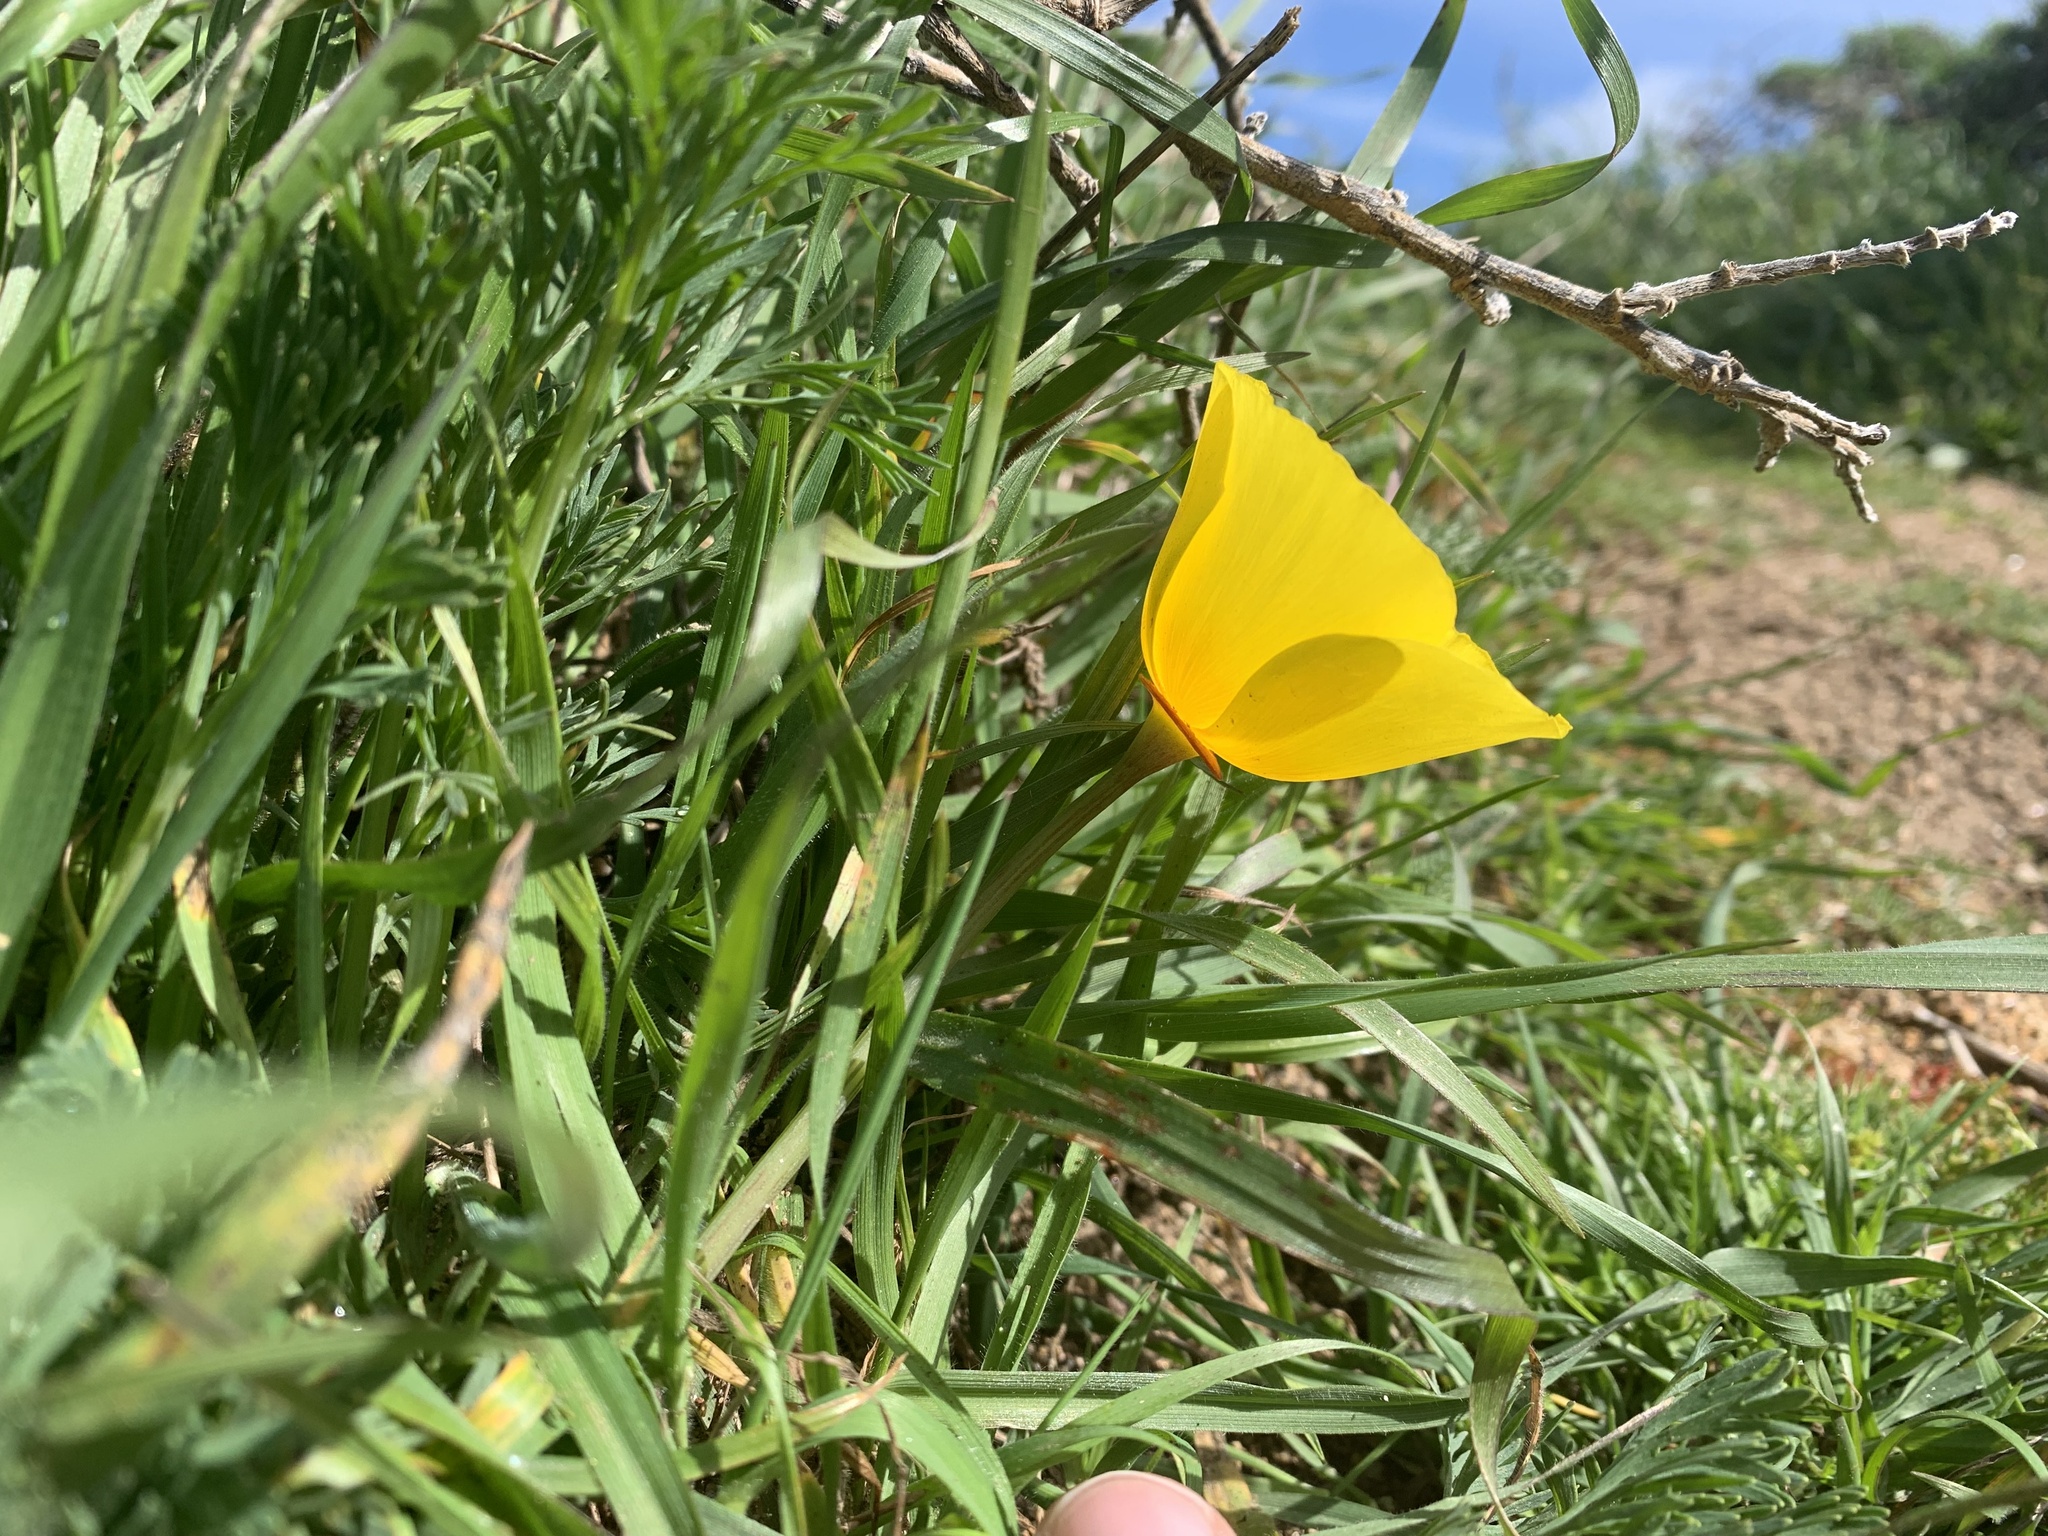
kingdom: Plantae
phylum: Tracheophyta
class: Magnoliopsida
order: Ranunculales
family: Papaveraceae
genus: Eschscholzia
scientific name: Eschscholzia californica
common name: California poppy
